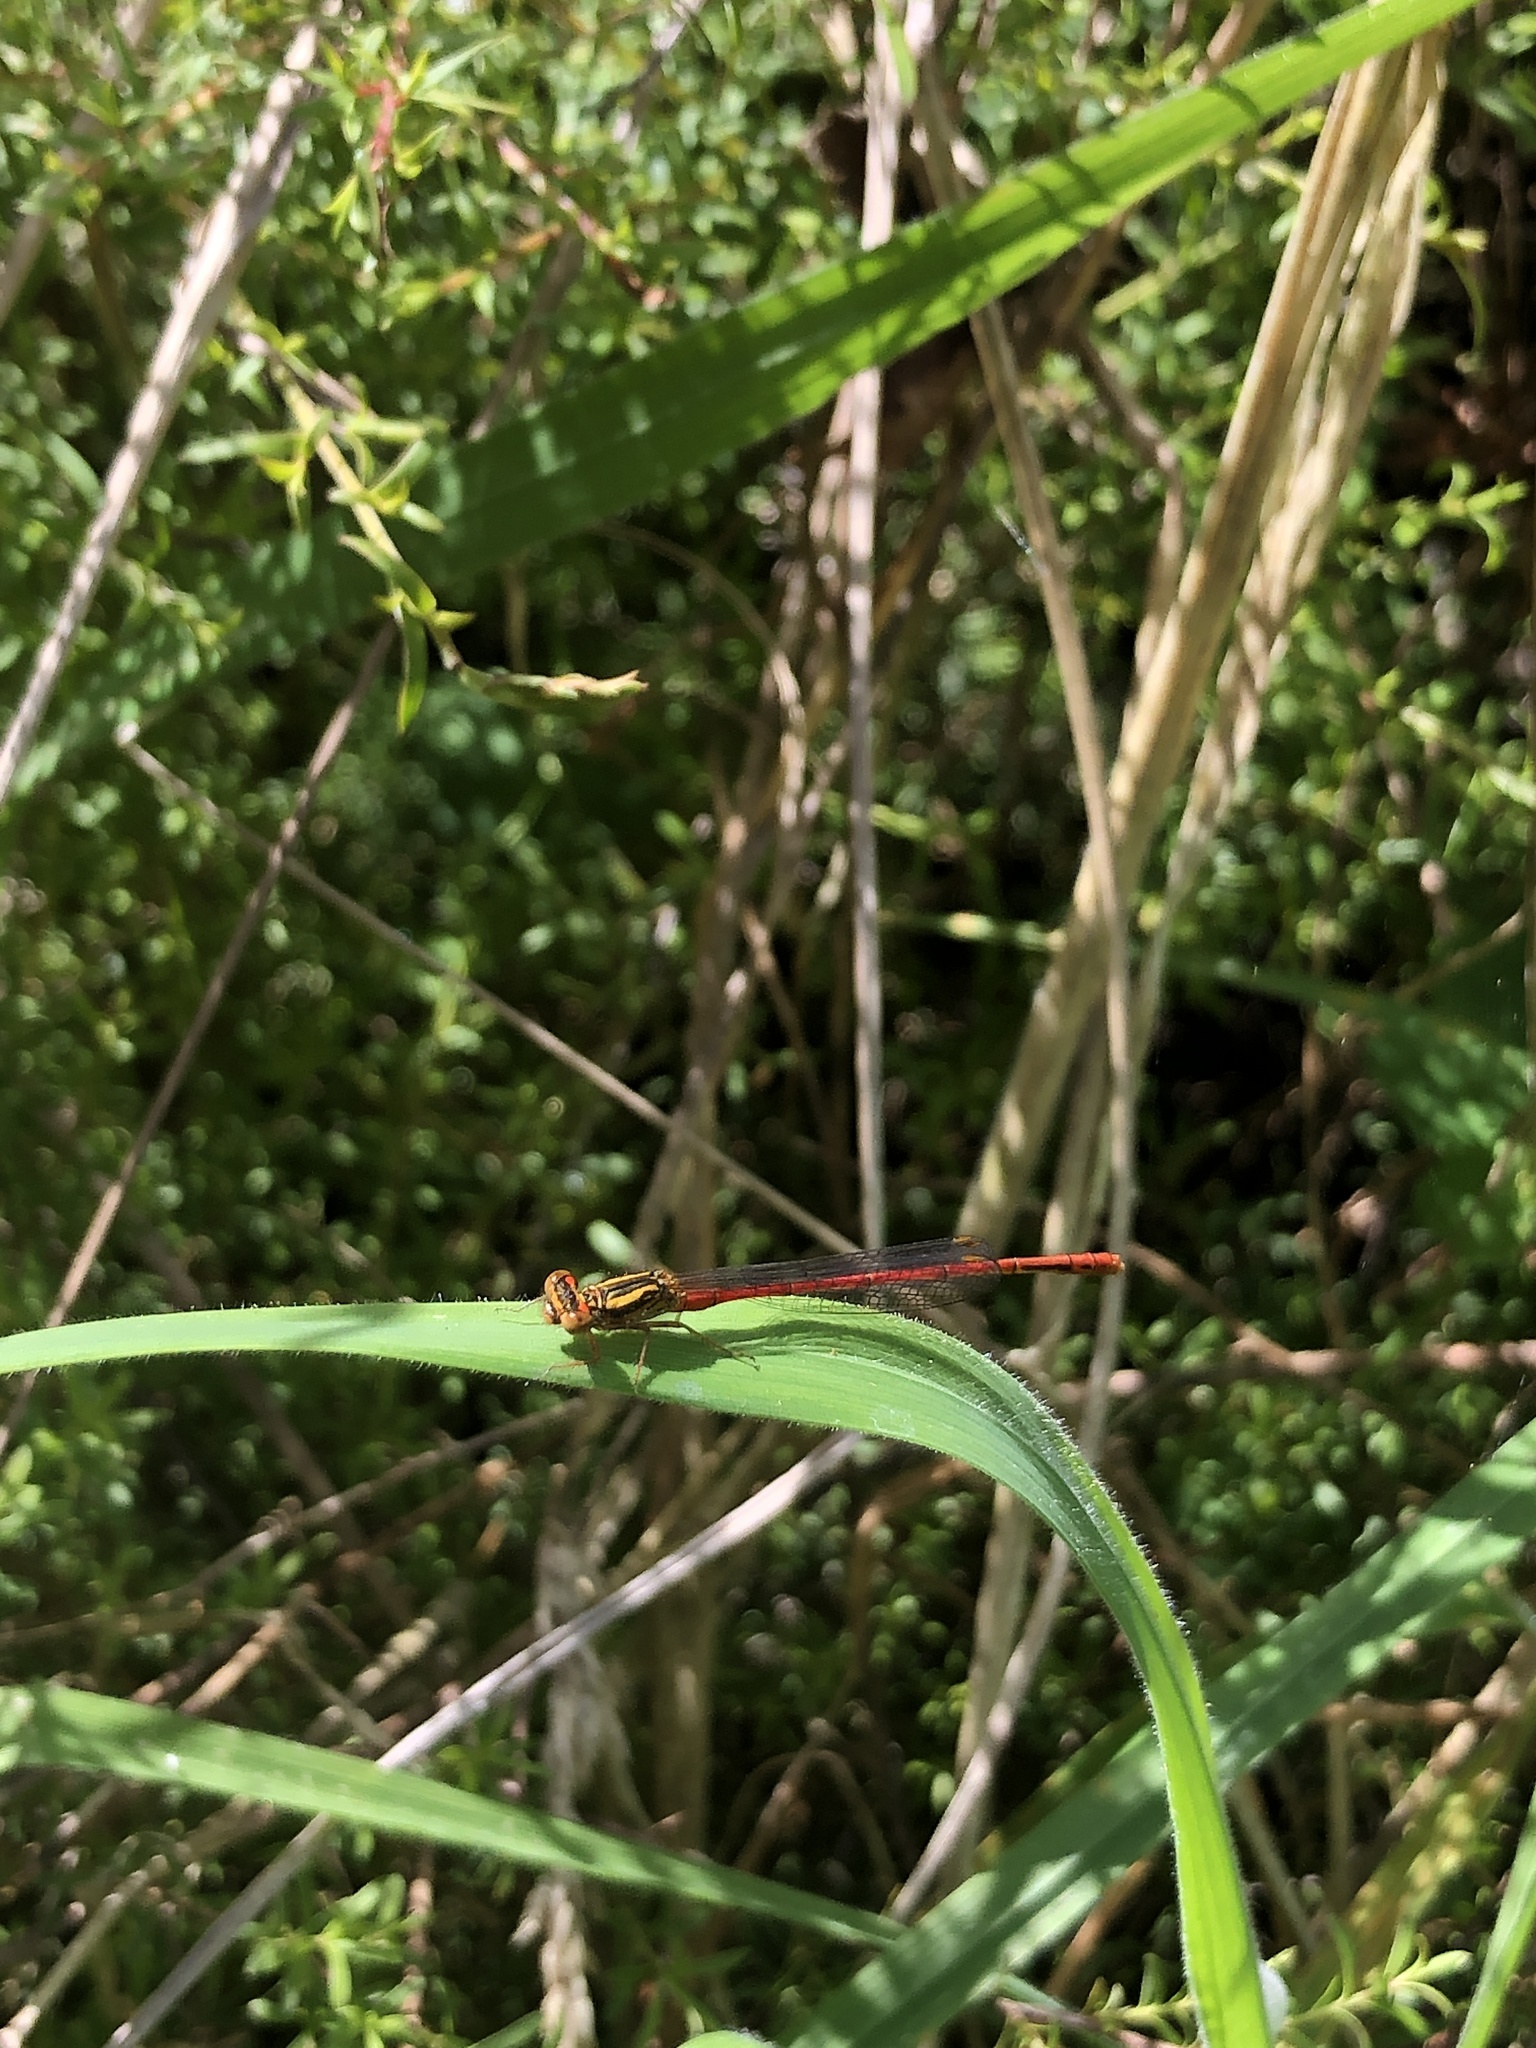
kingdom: Animalia
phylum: Arthropoda
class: Insecta
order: Odonata
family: Coenagrionidae
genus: Xanthocnemis
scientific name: Xanthocnemis zealandica
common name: Common redcoat damselfly
